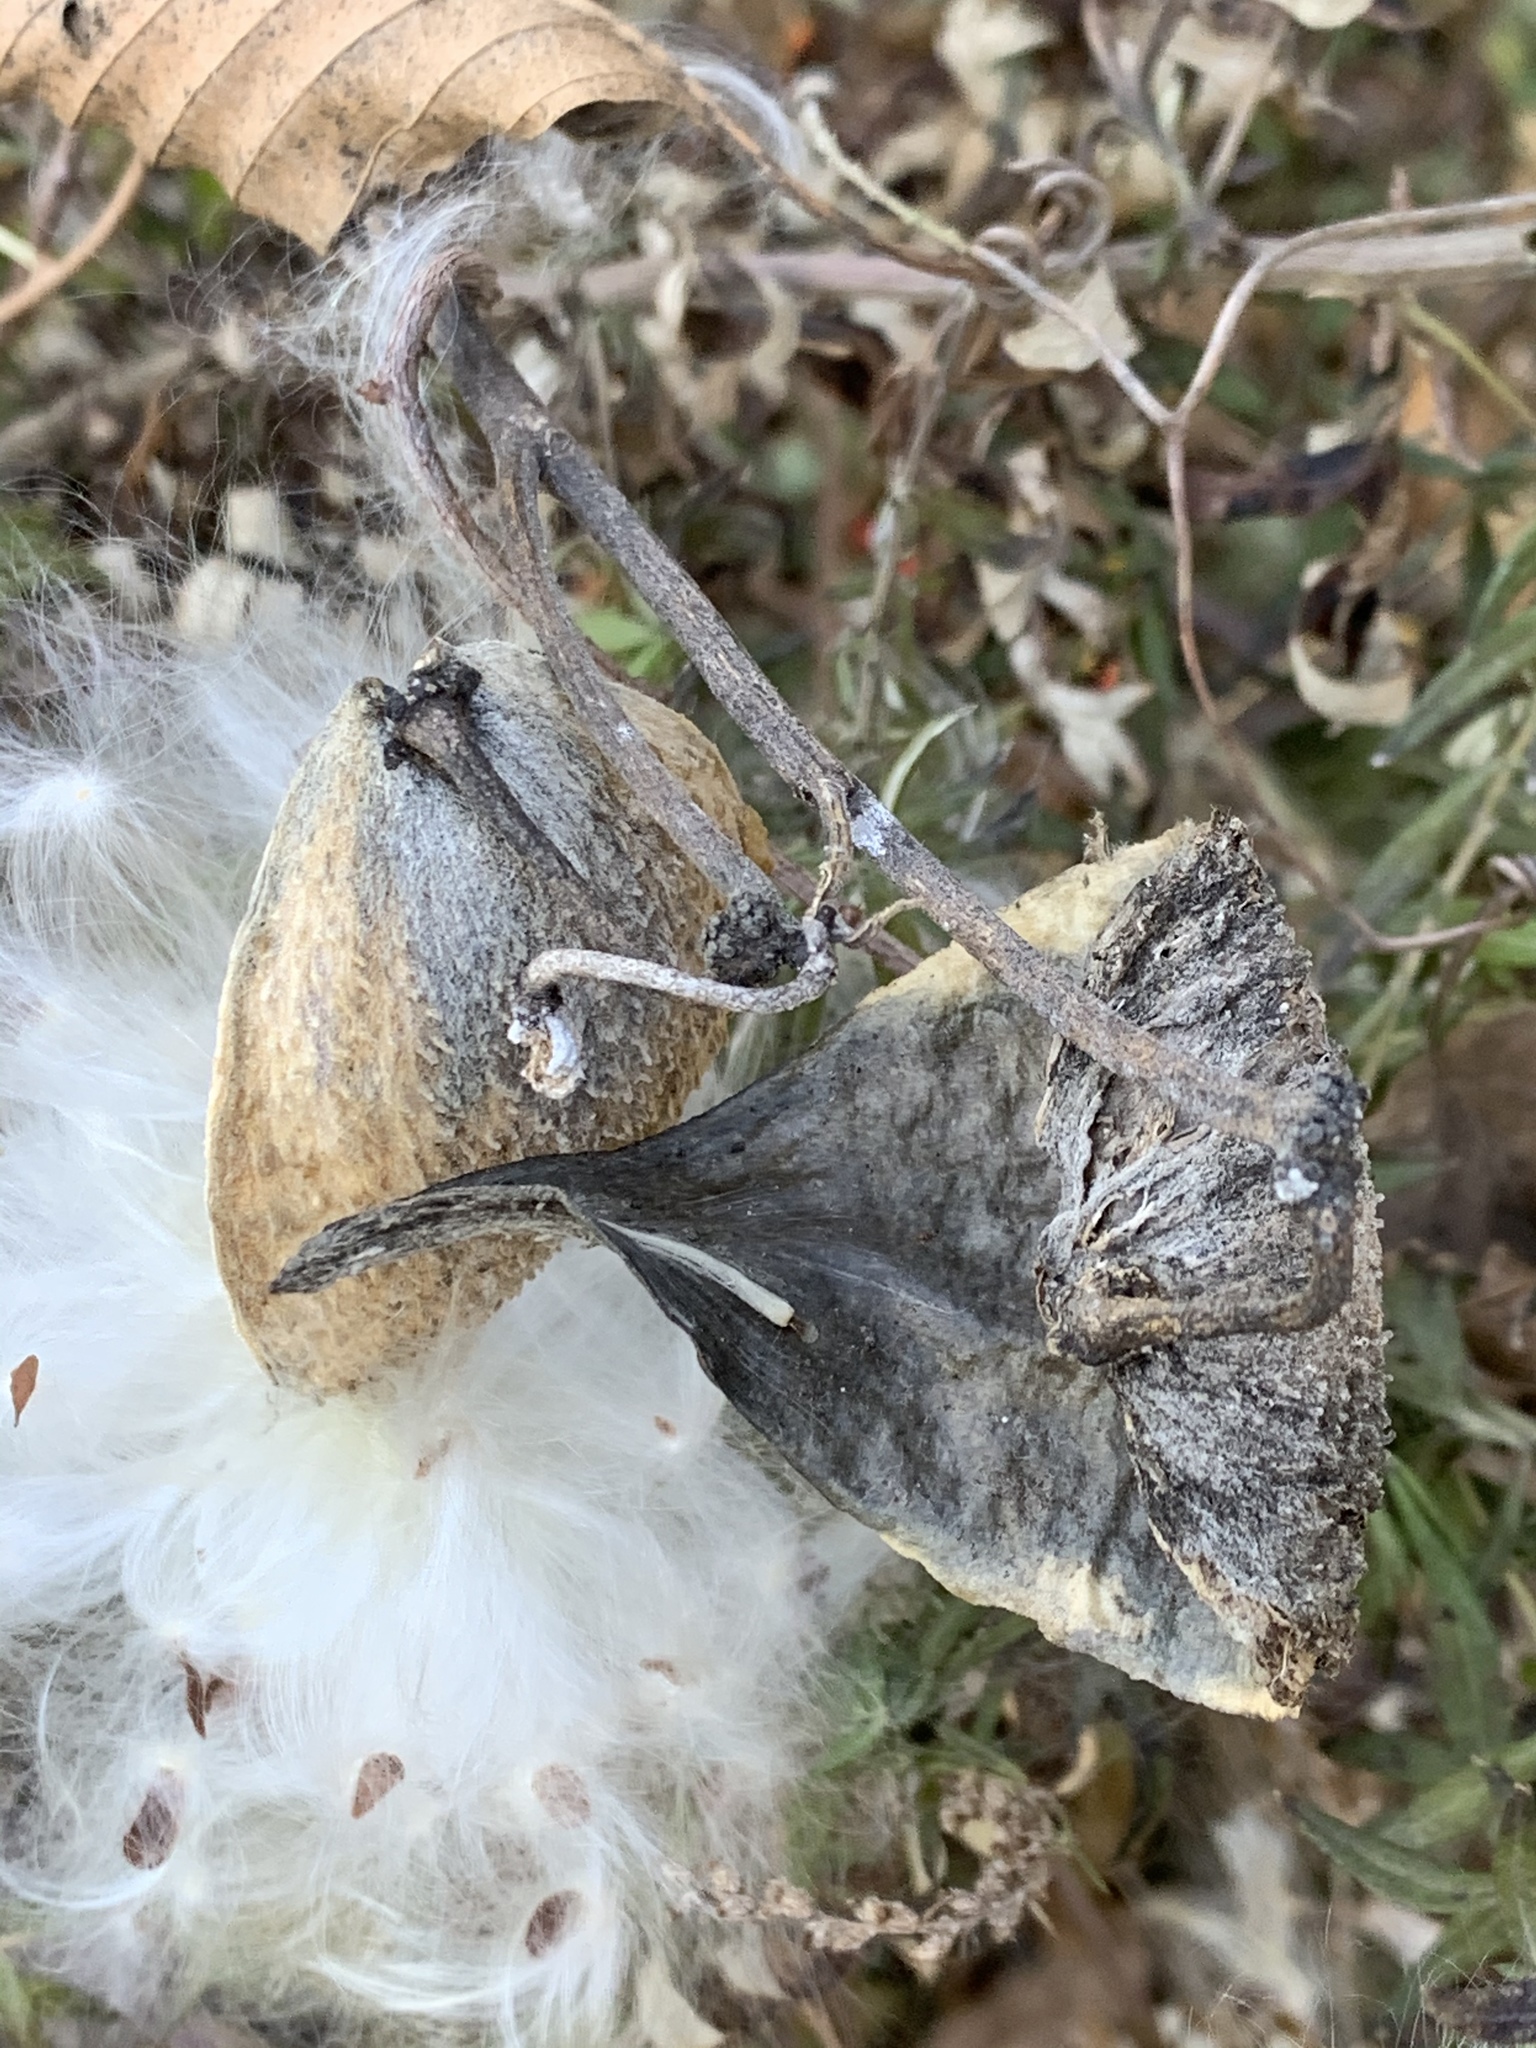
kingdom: Plantae
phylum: Tracheophyta
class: Magnoliopsida
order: Gentianales
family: Apocynaceae
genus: Asclepias
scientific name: Asclepias syriaca
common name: Common milkweed
